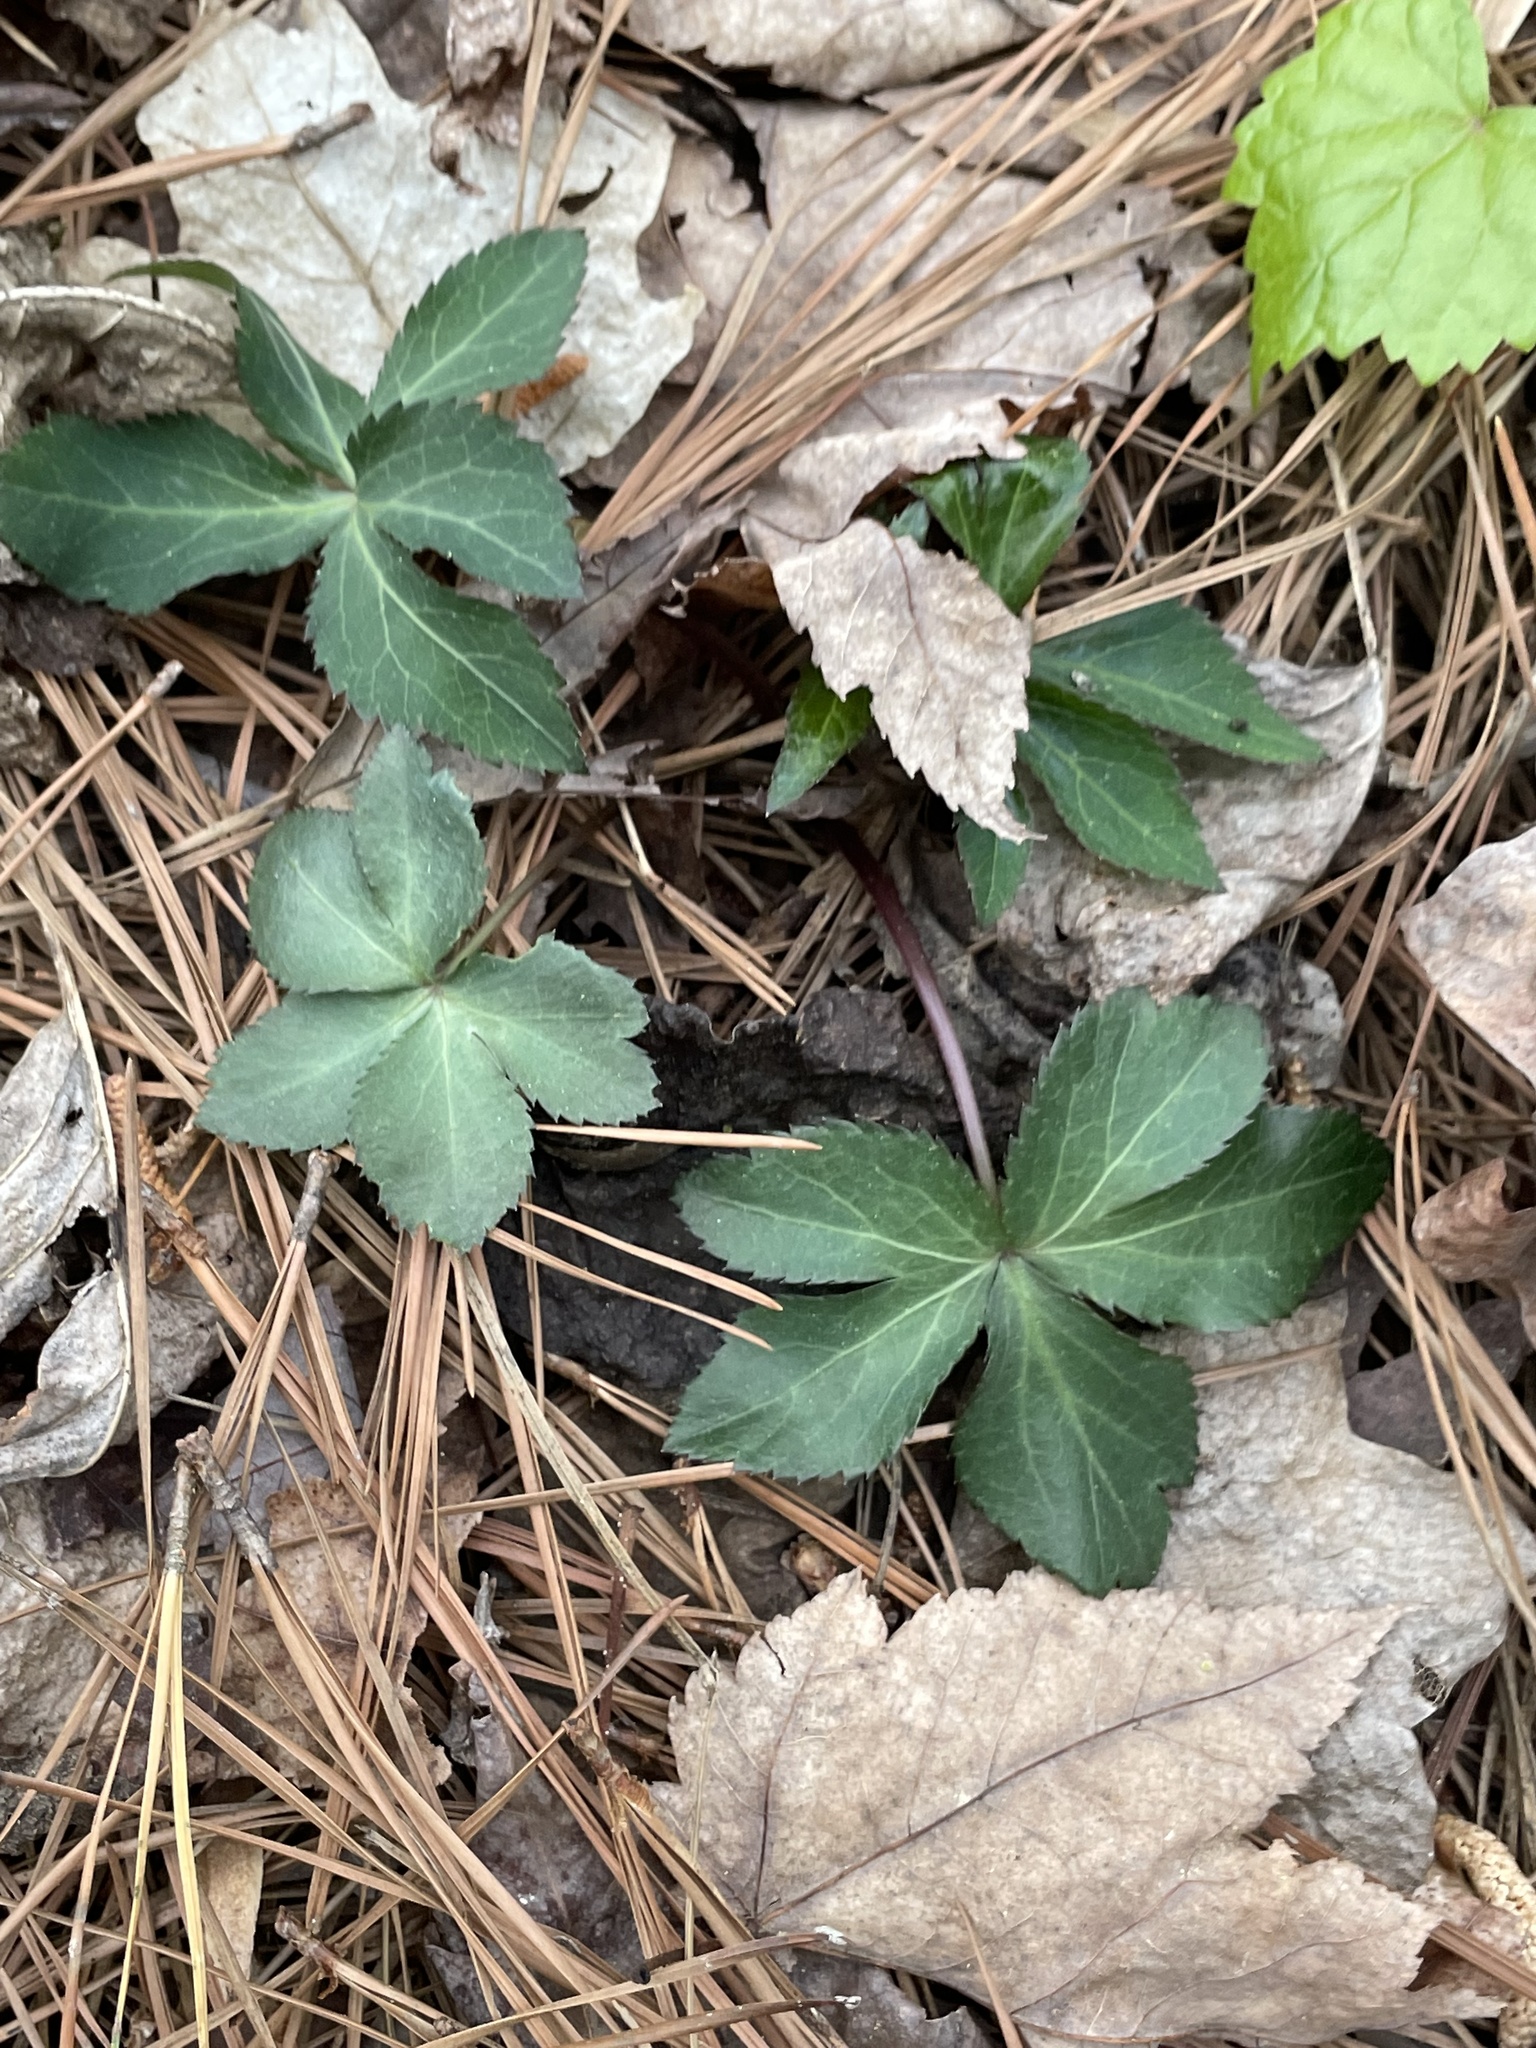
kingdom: Plantae
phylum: Tracheophyta
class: Magnoliopsida
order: Apiales
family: Apiaceae
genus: Sanicula
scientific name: Sanicula smallii
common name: Small's black snakeroot
